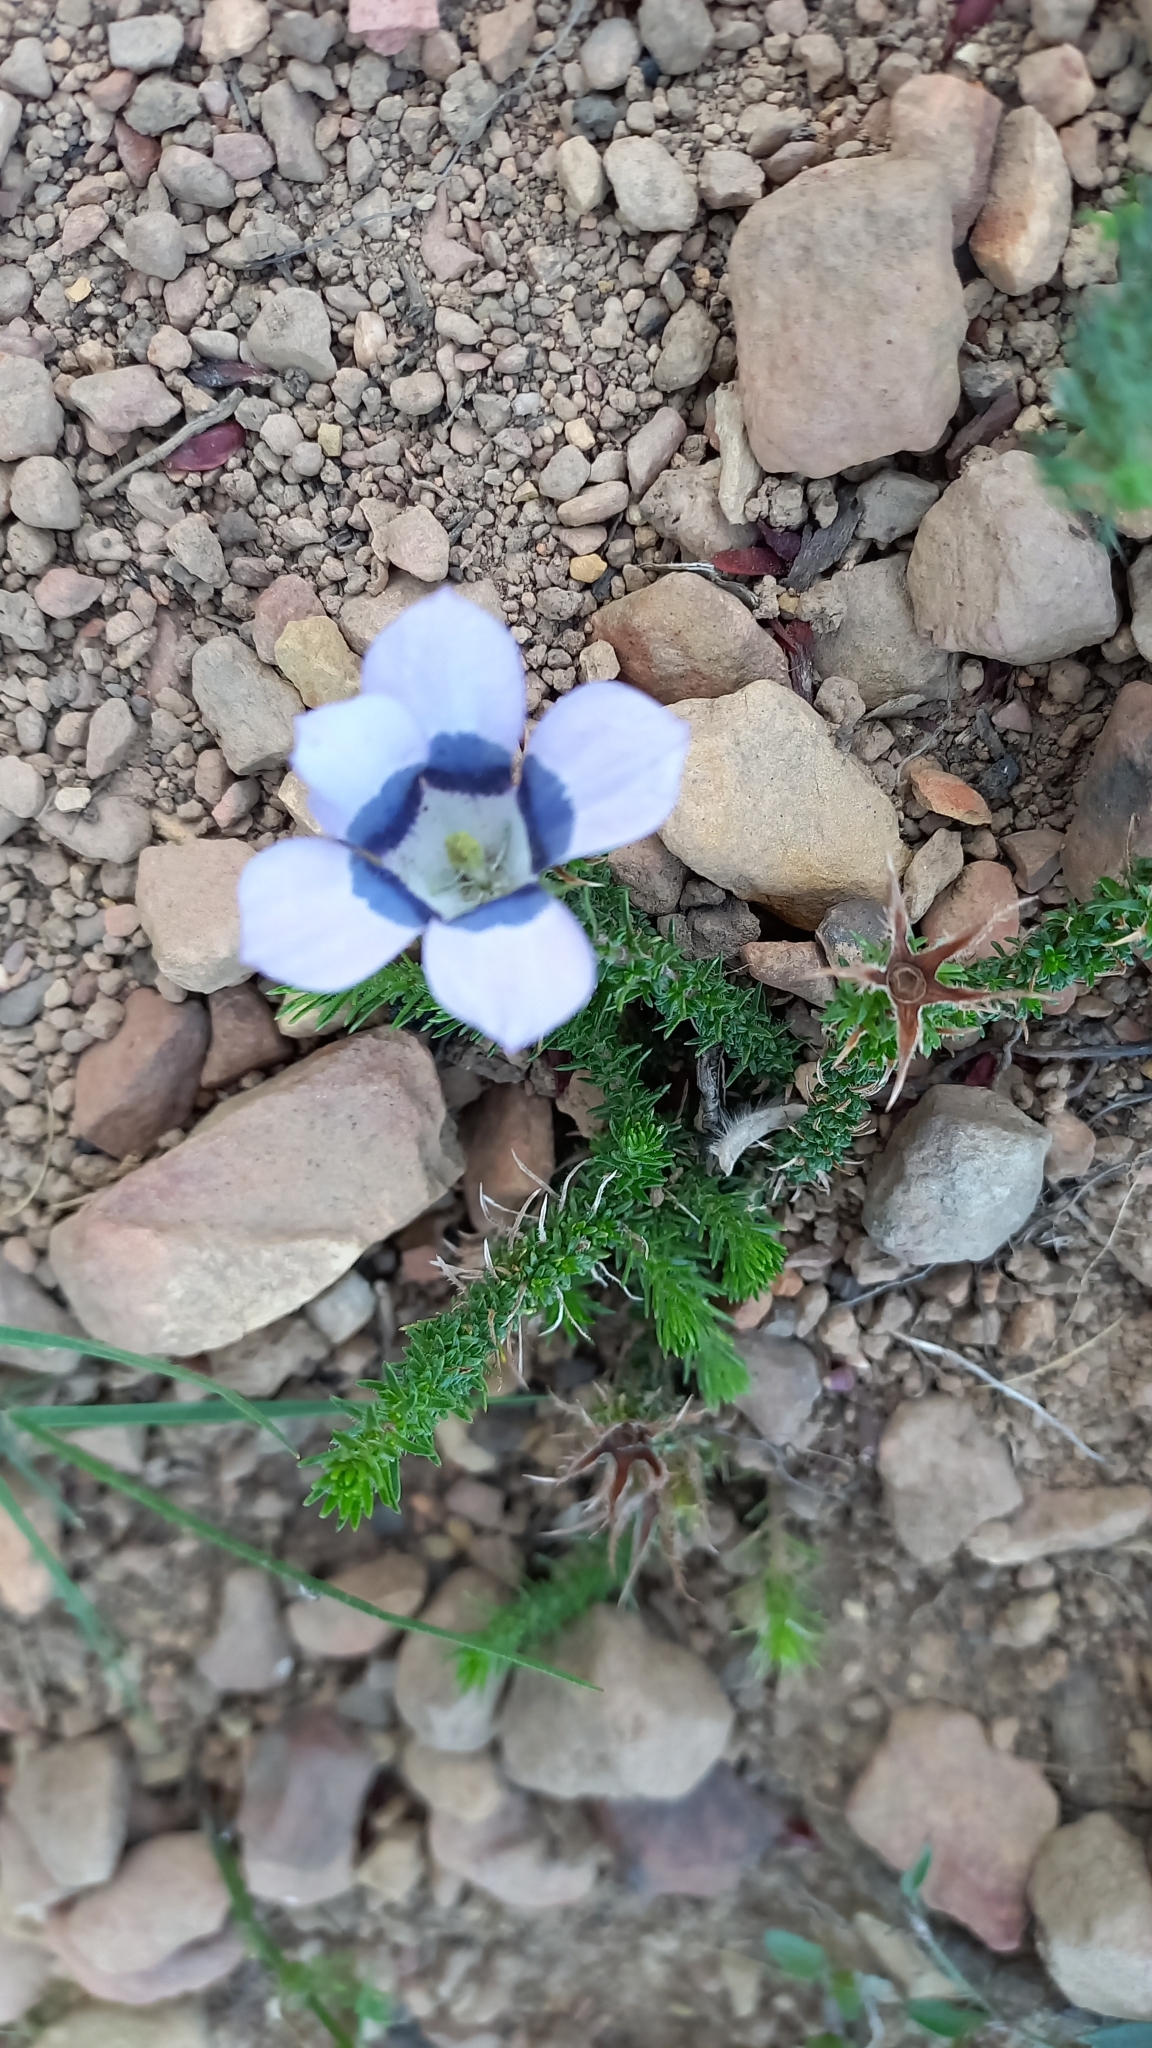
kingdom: Plantae
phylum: Tracheophyta
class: Magnoliopsida
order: Asterales
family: Campanulaceae
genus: Roella
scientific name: Roella ciliata
